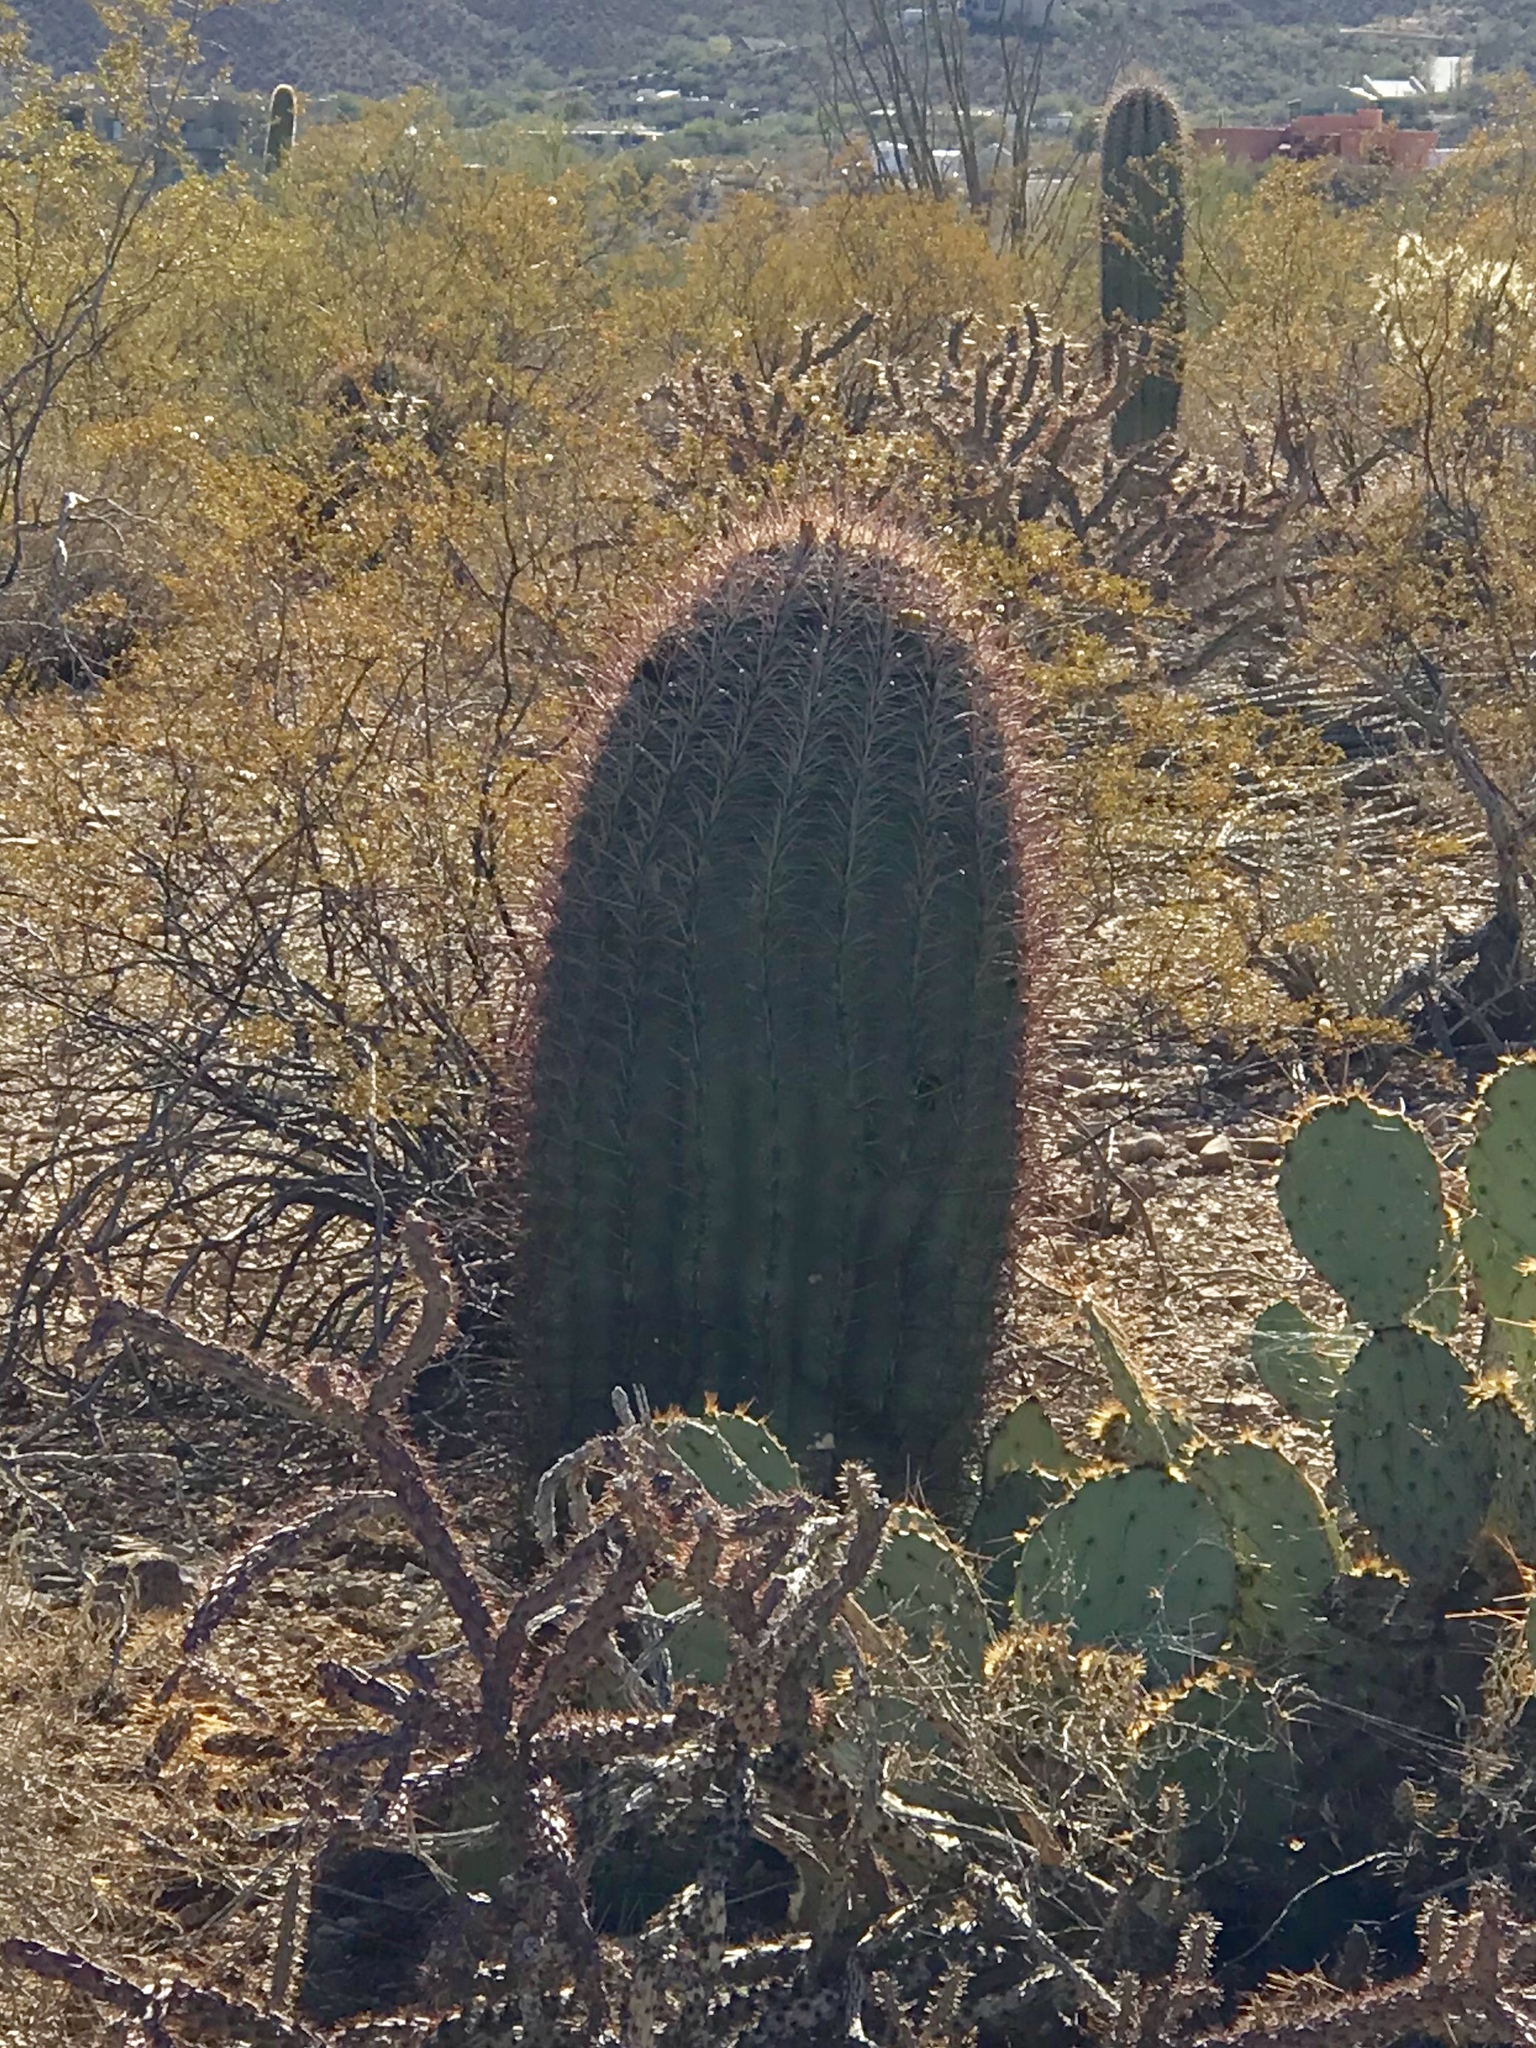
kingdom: Plantae
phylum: Tracheophyta
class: Magnoliopsida
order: Caryophyllales
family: Cactaceae
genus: Ferocactus
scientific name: Ferocactus wislizeni
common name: Candy barrel cactus
